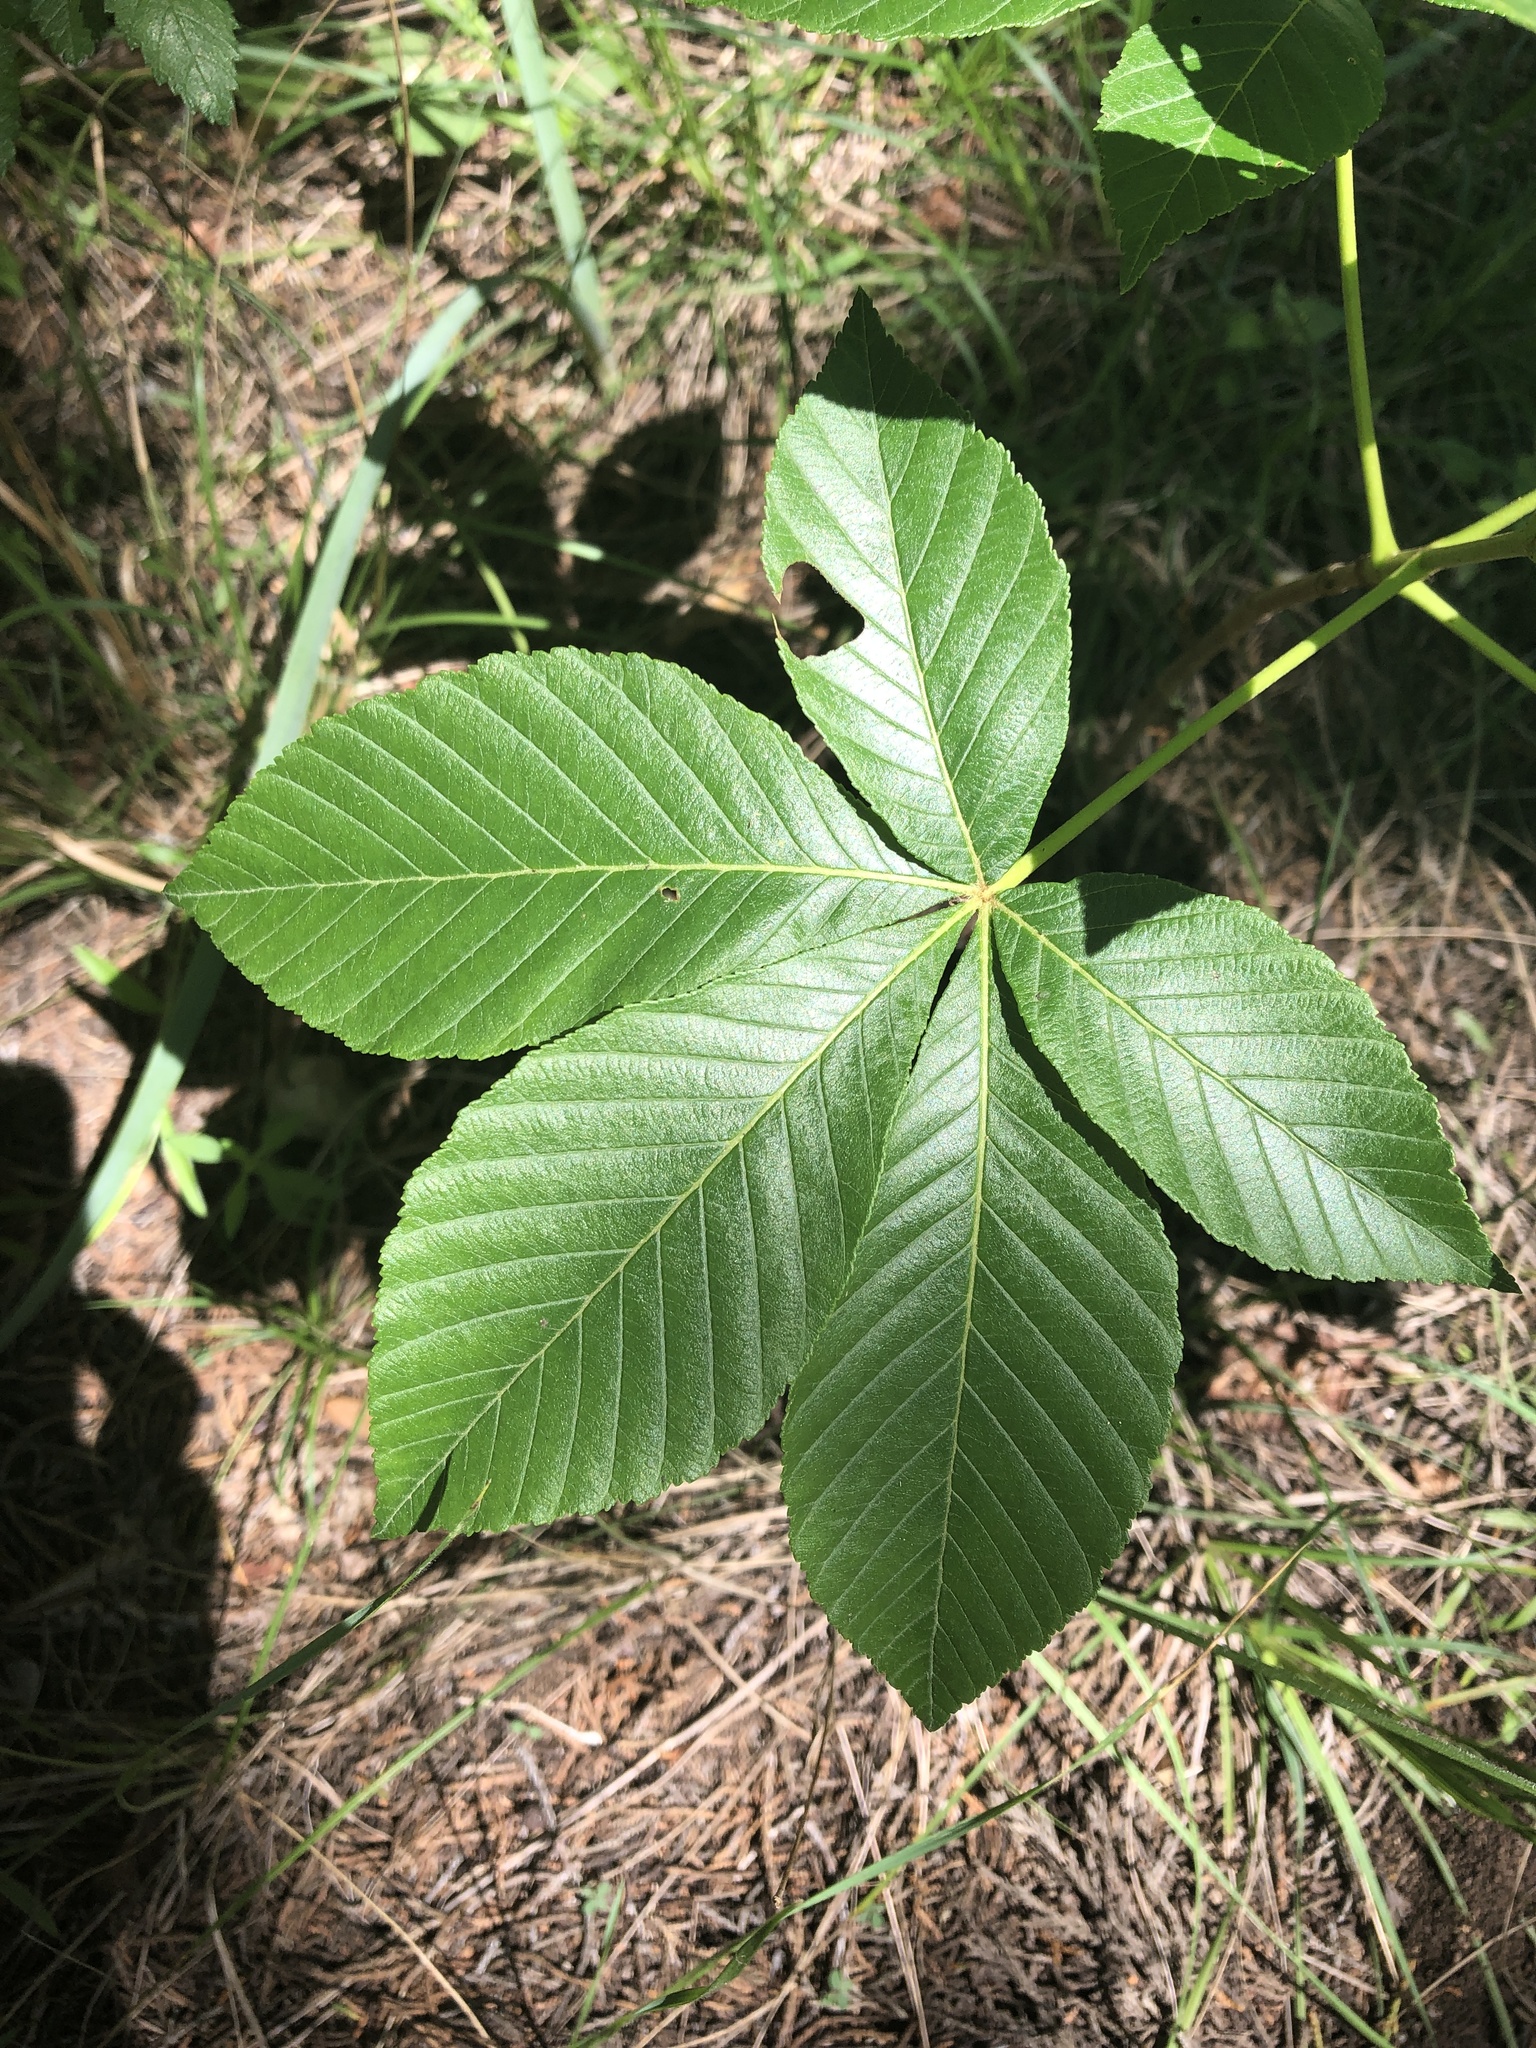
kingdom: Plantae
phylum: Tracheophyta
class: Magnoliopsida
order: Sapindales
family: Sapindaceae
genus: Aesculus
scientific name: Aesculus pavia
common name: Red buckeye
